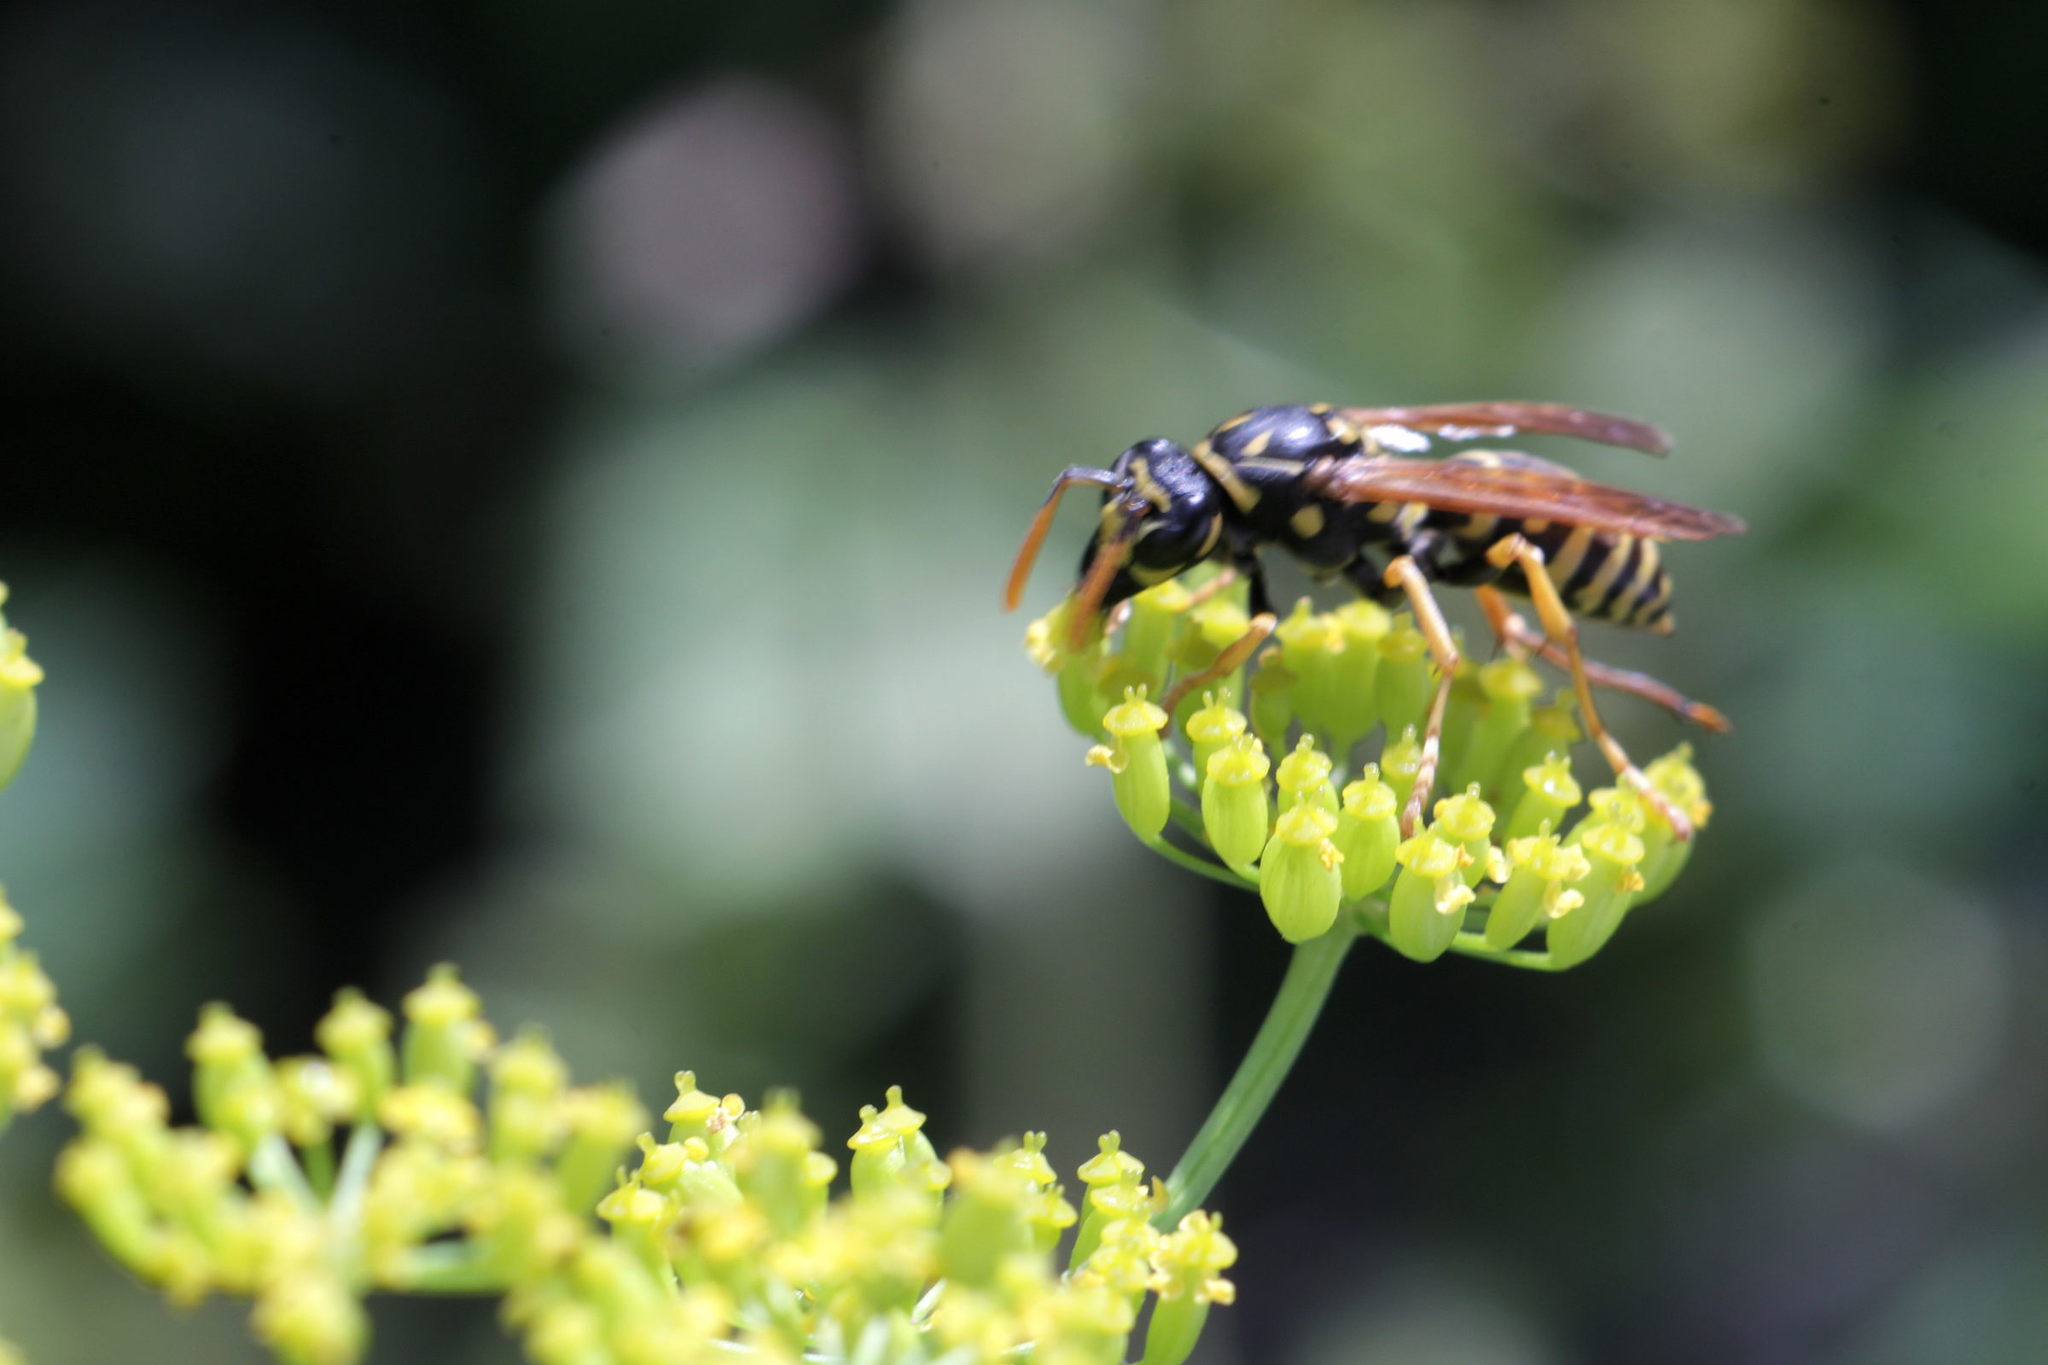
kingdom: Animalia
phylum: Arthropoda
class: Insecta
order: Hymenoptera
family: Eumenidae
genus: Polistes
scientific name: Polistes dominula
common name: Paper wasp
